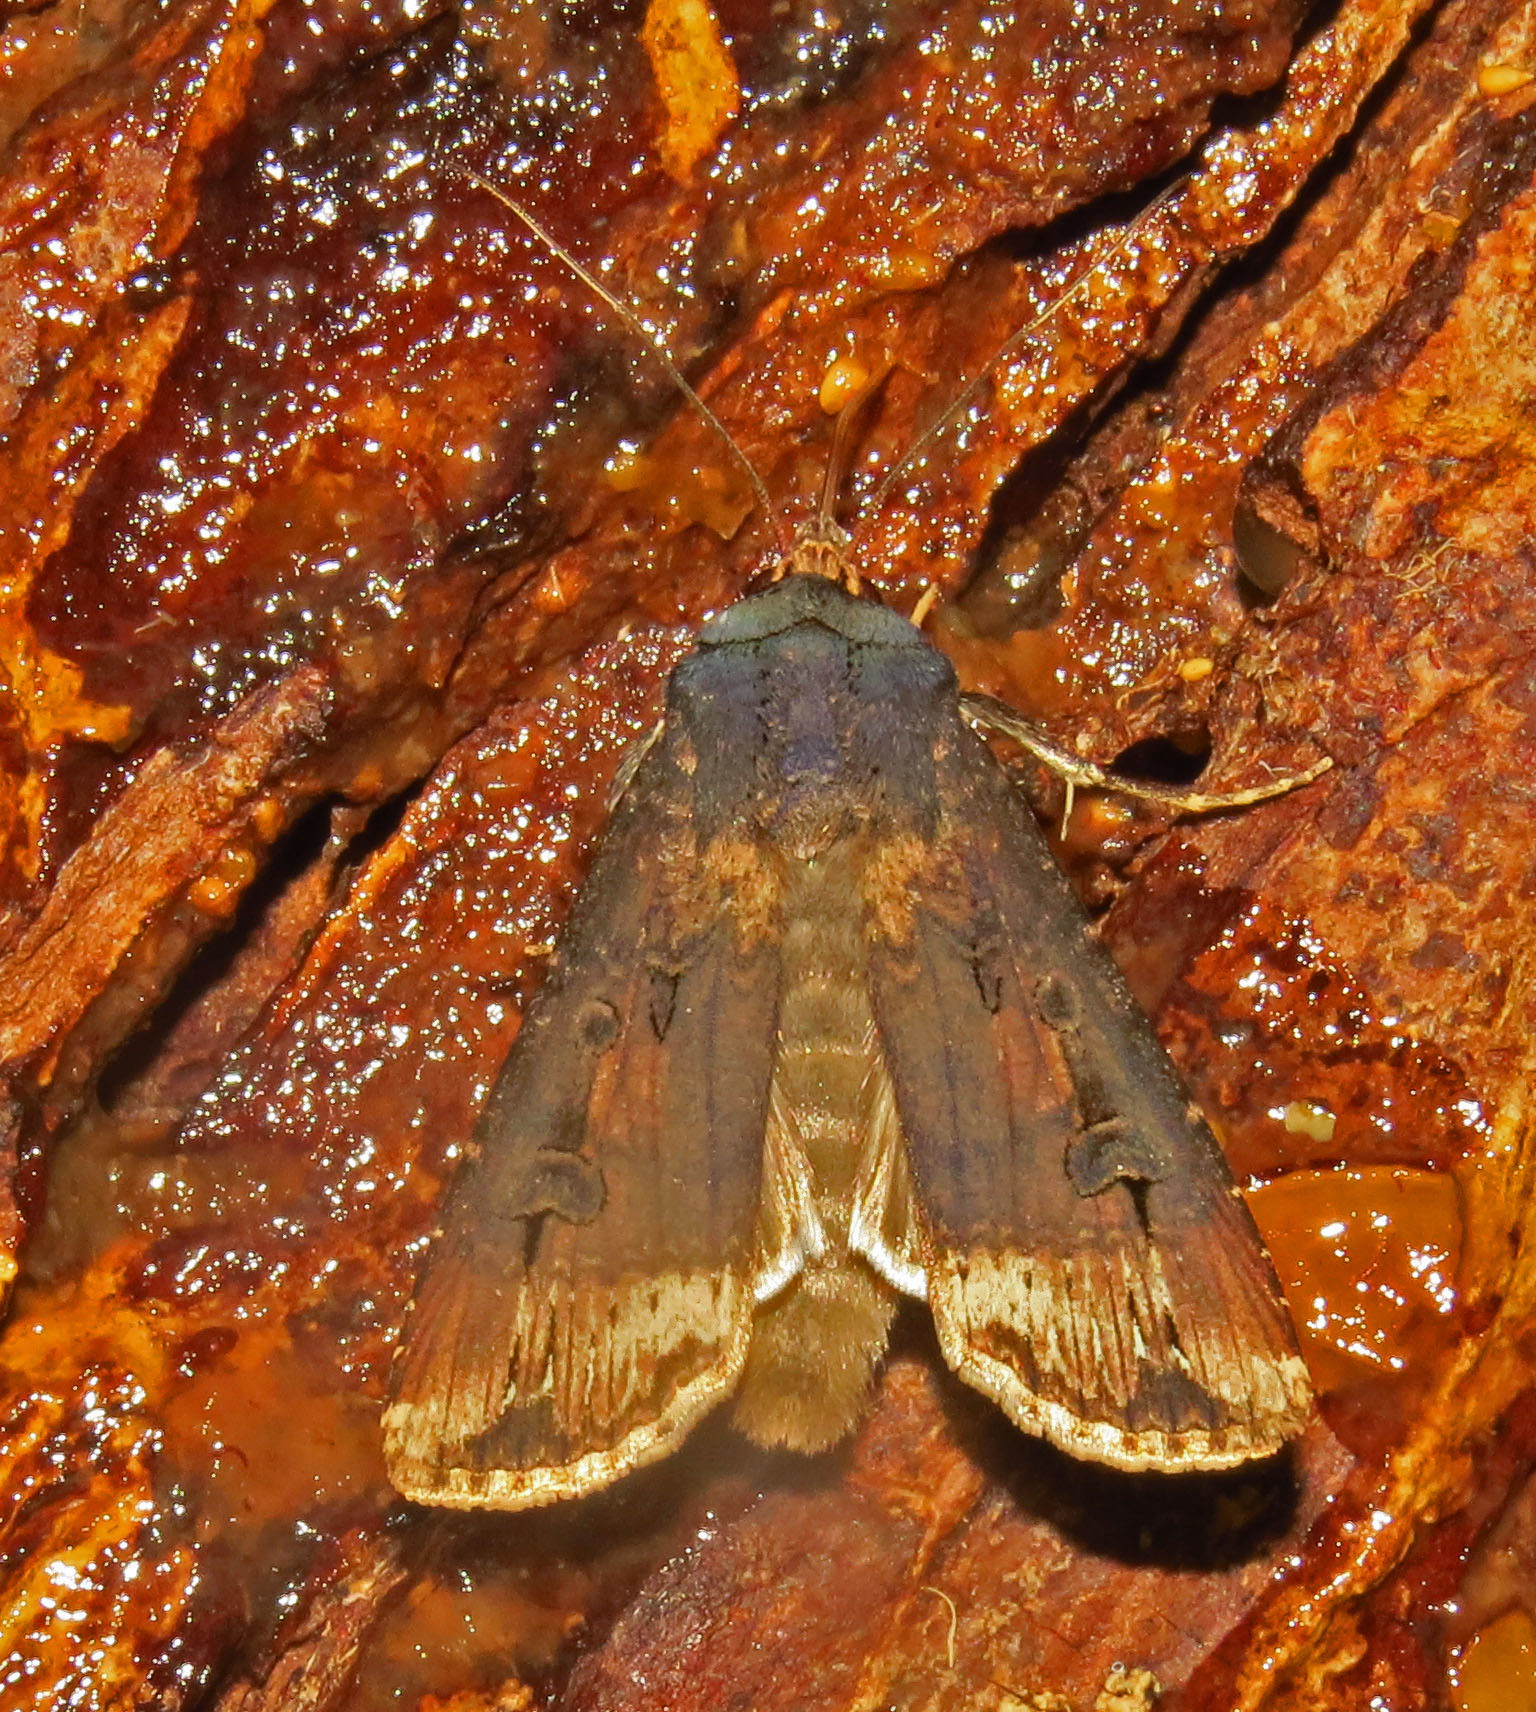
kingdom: Animalia
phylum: Arthropoda
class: Insecta
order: Lepidoptera
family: Noctuidae
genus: Agrotis
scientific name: Agrotis ipsilon
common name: Dark sword-grass
